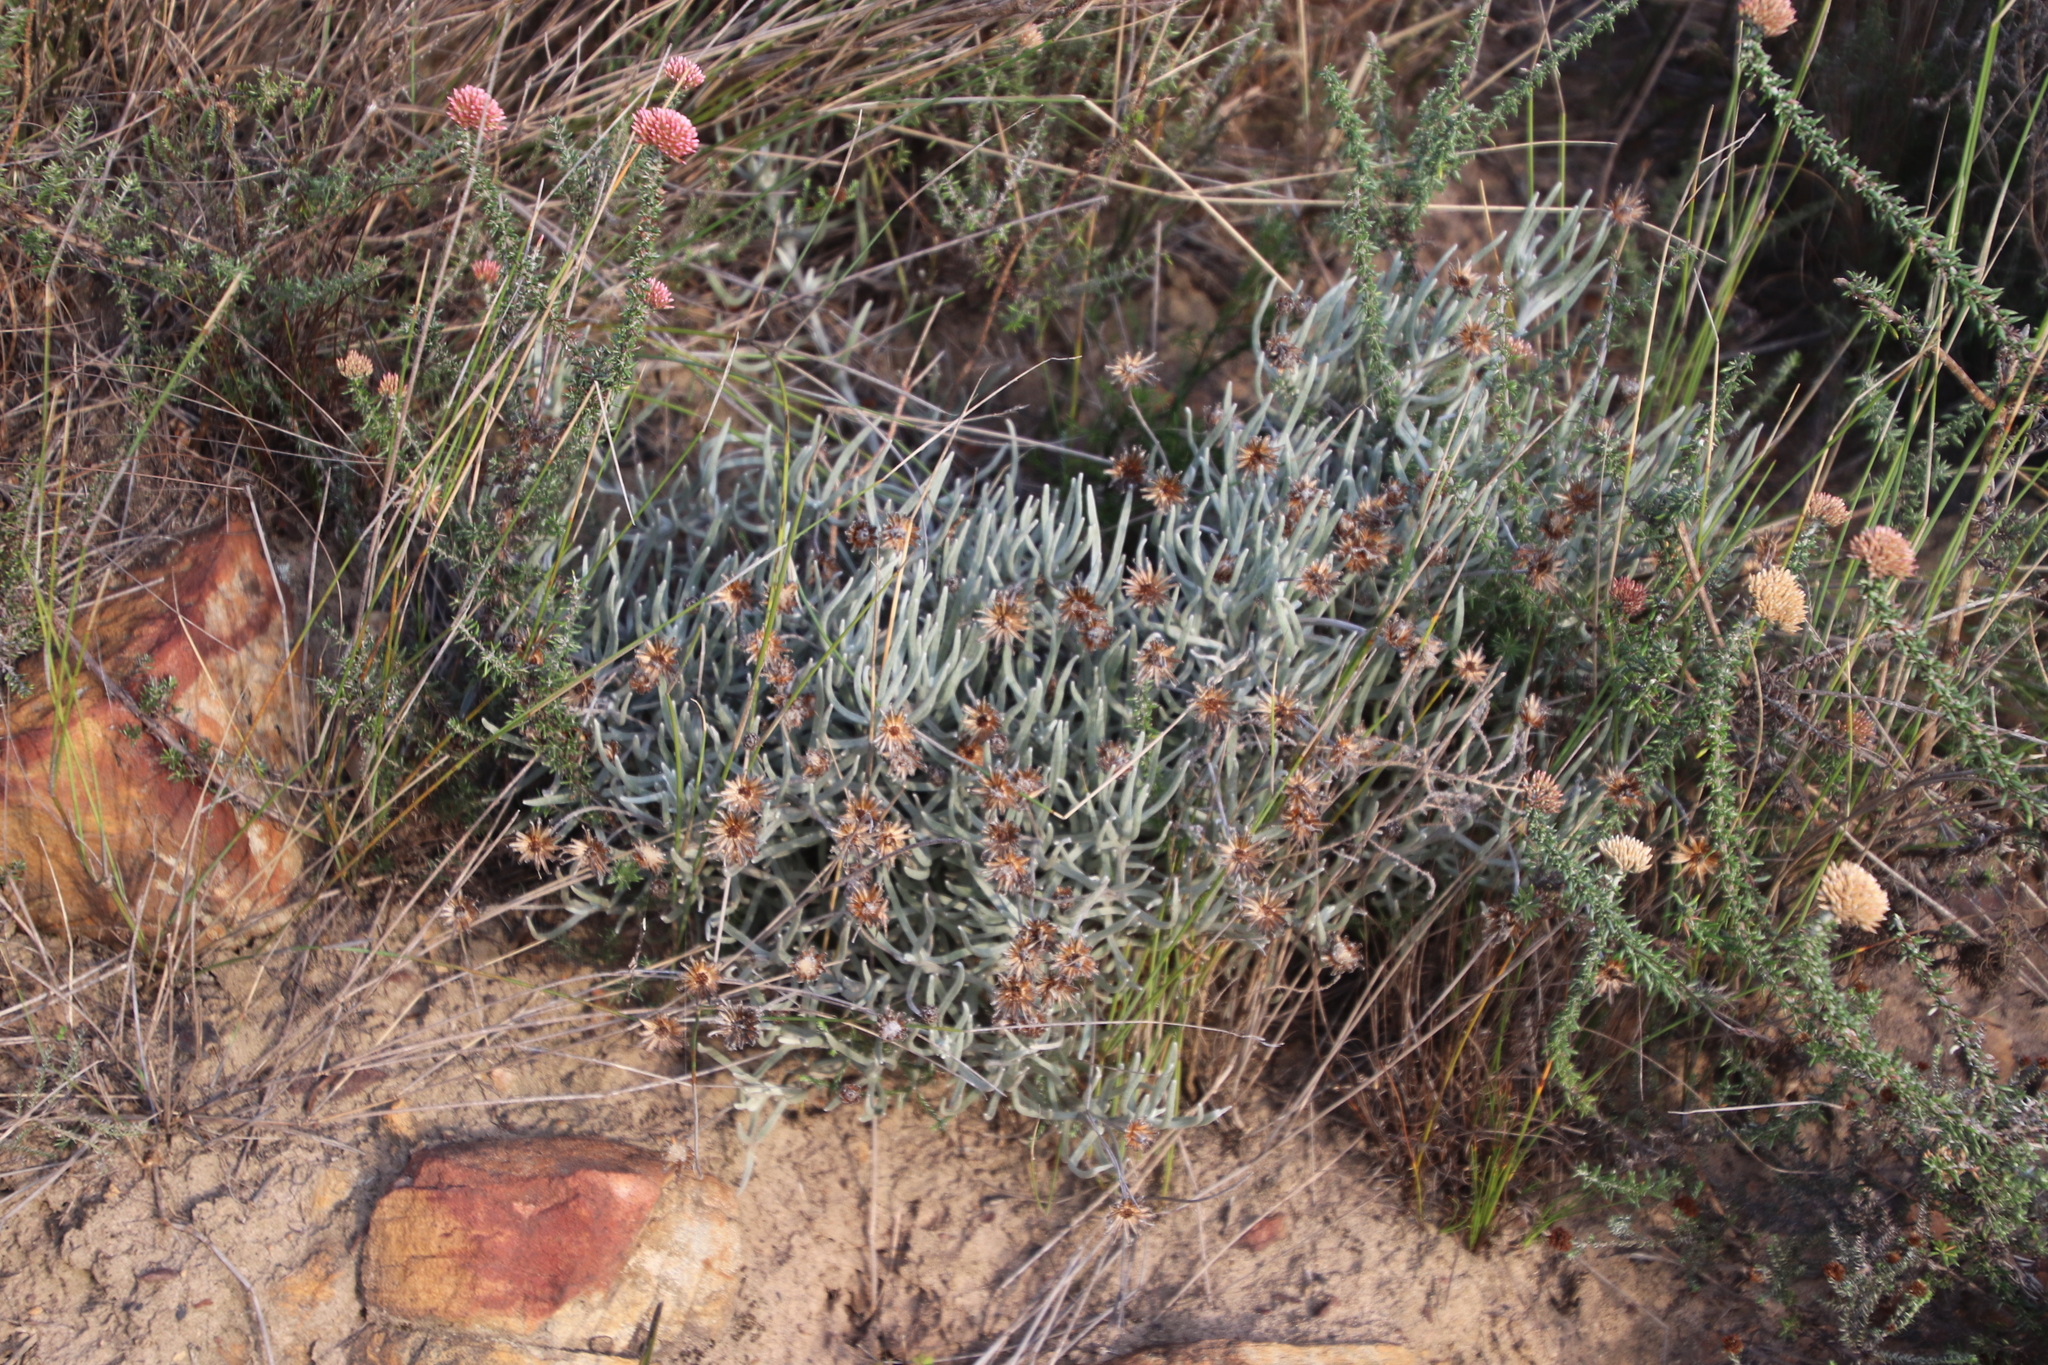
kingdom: Plantae
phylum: Tracheophyta
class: Magnoliopsida
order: Asterales
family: Asteraceae
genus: Syncarpha
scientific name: Syncarpha gnaphaloides
